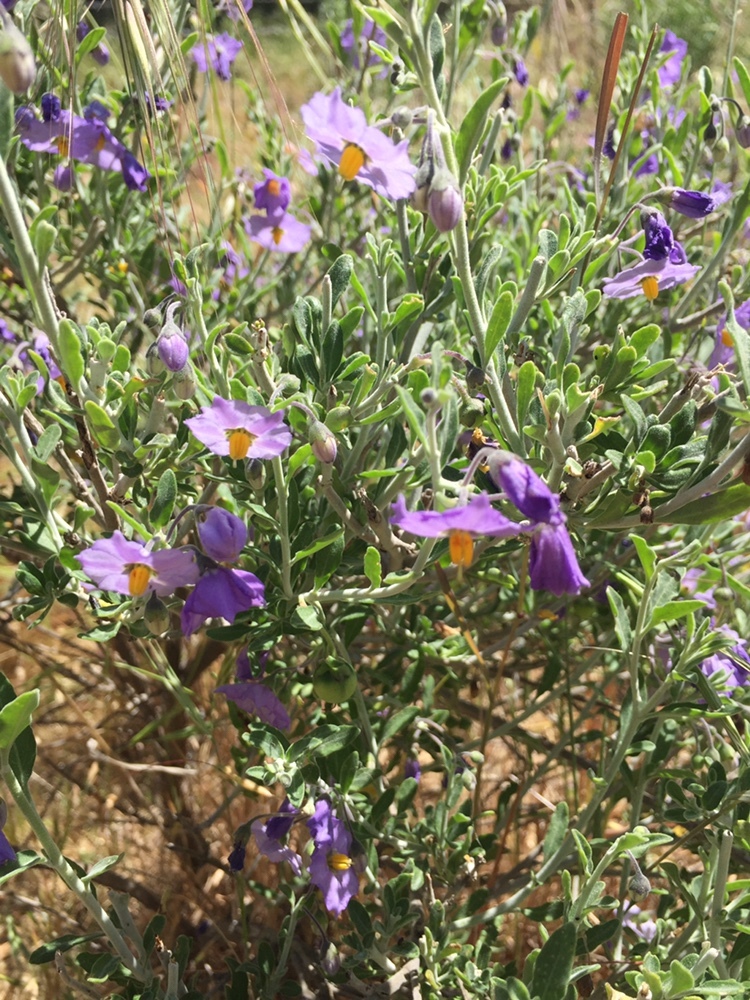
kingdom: Plantae
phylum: Tracheophyta
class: Magnoliopsida
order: Solanales
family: Solanaceae
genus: Solanum
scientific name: Solanum umbelliferum
